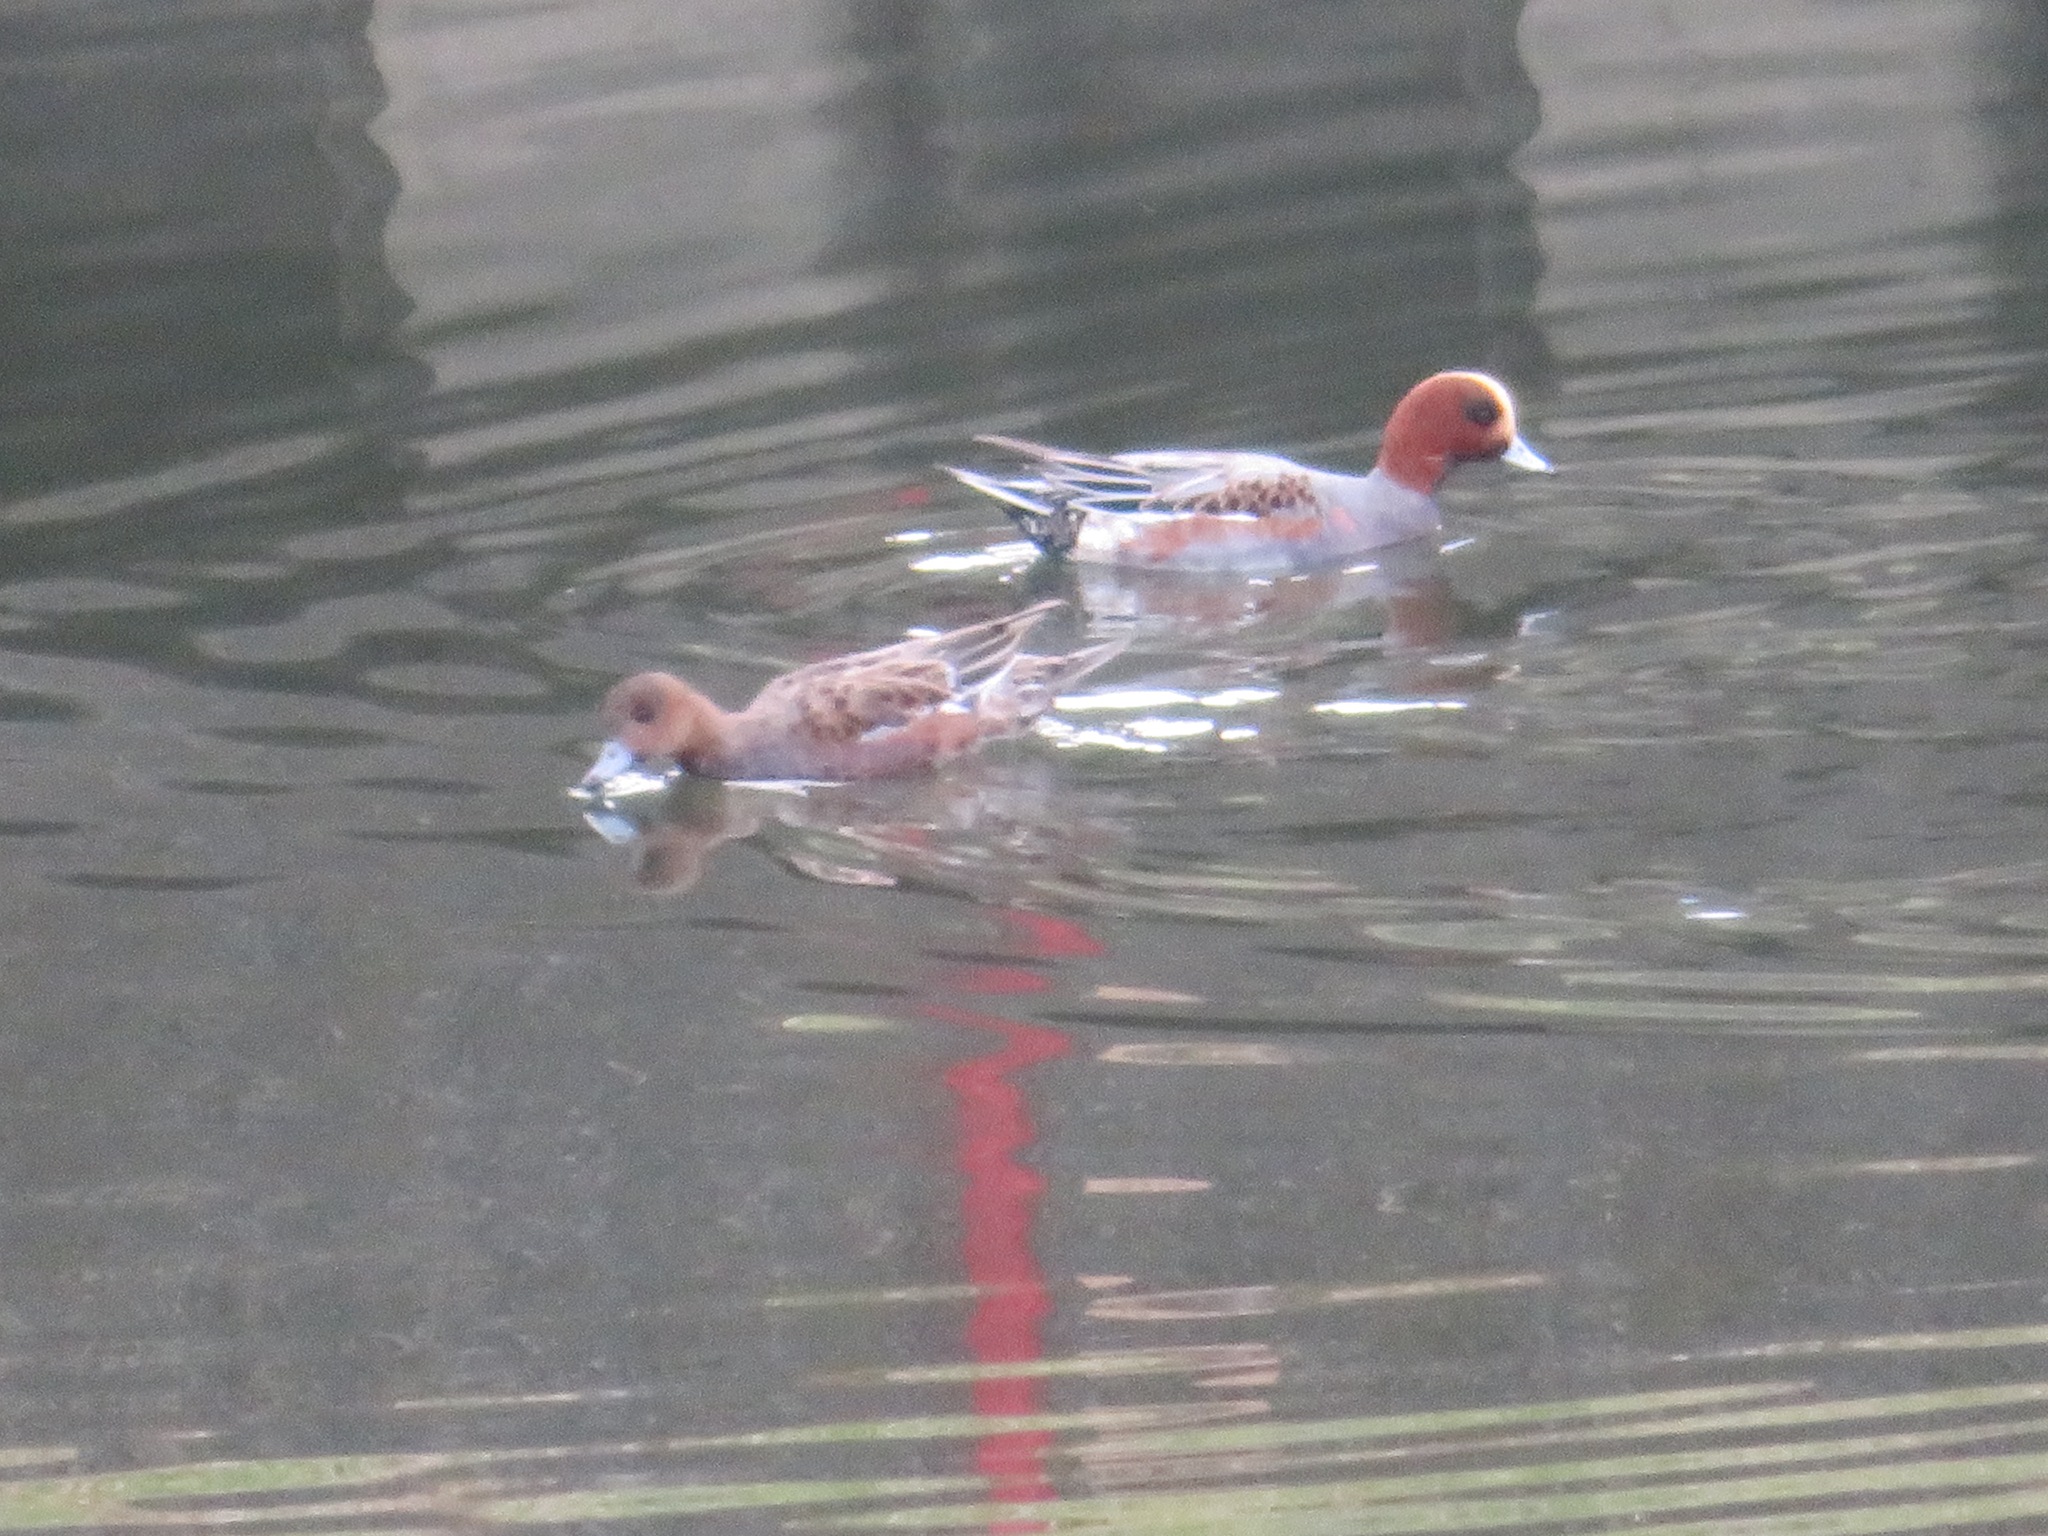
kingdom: Animalia
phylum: Chordata
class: Aves
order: Anseriformes
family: Anatidae
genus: Mareca
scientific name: Mareca penelope
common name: Eurasian wigeon
